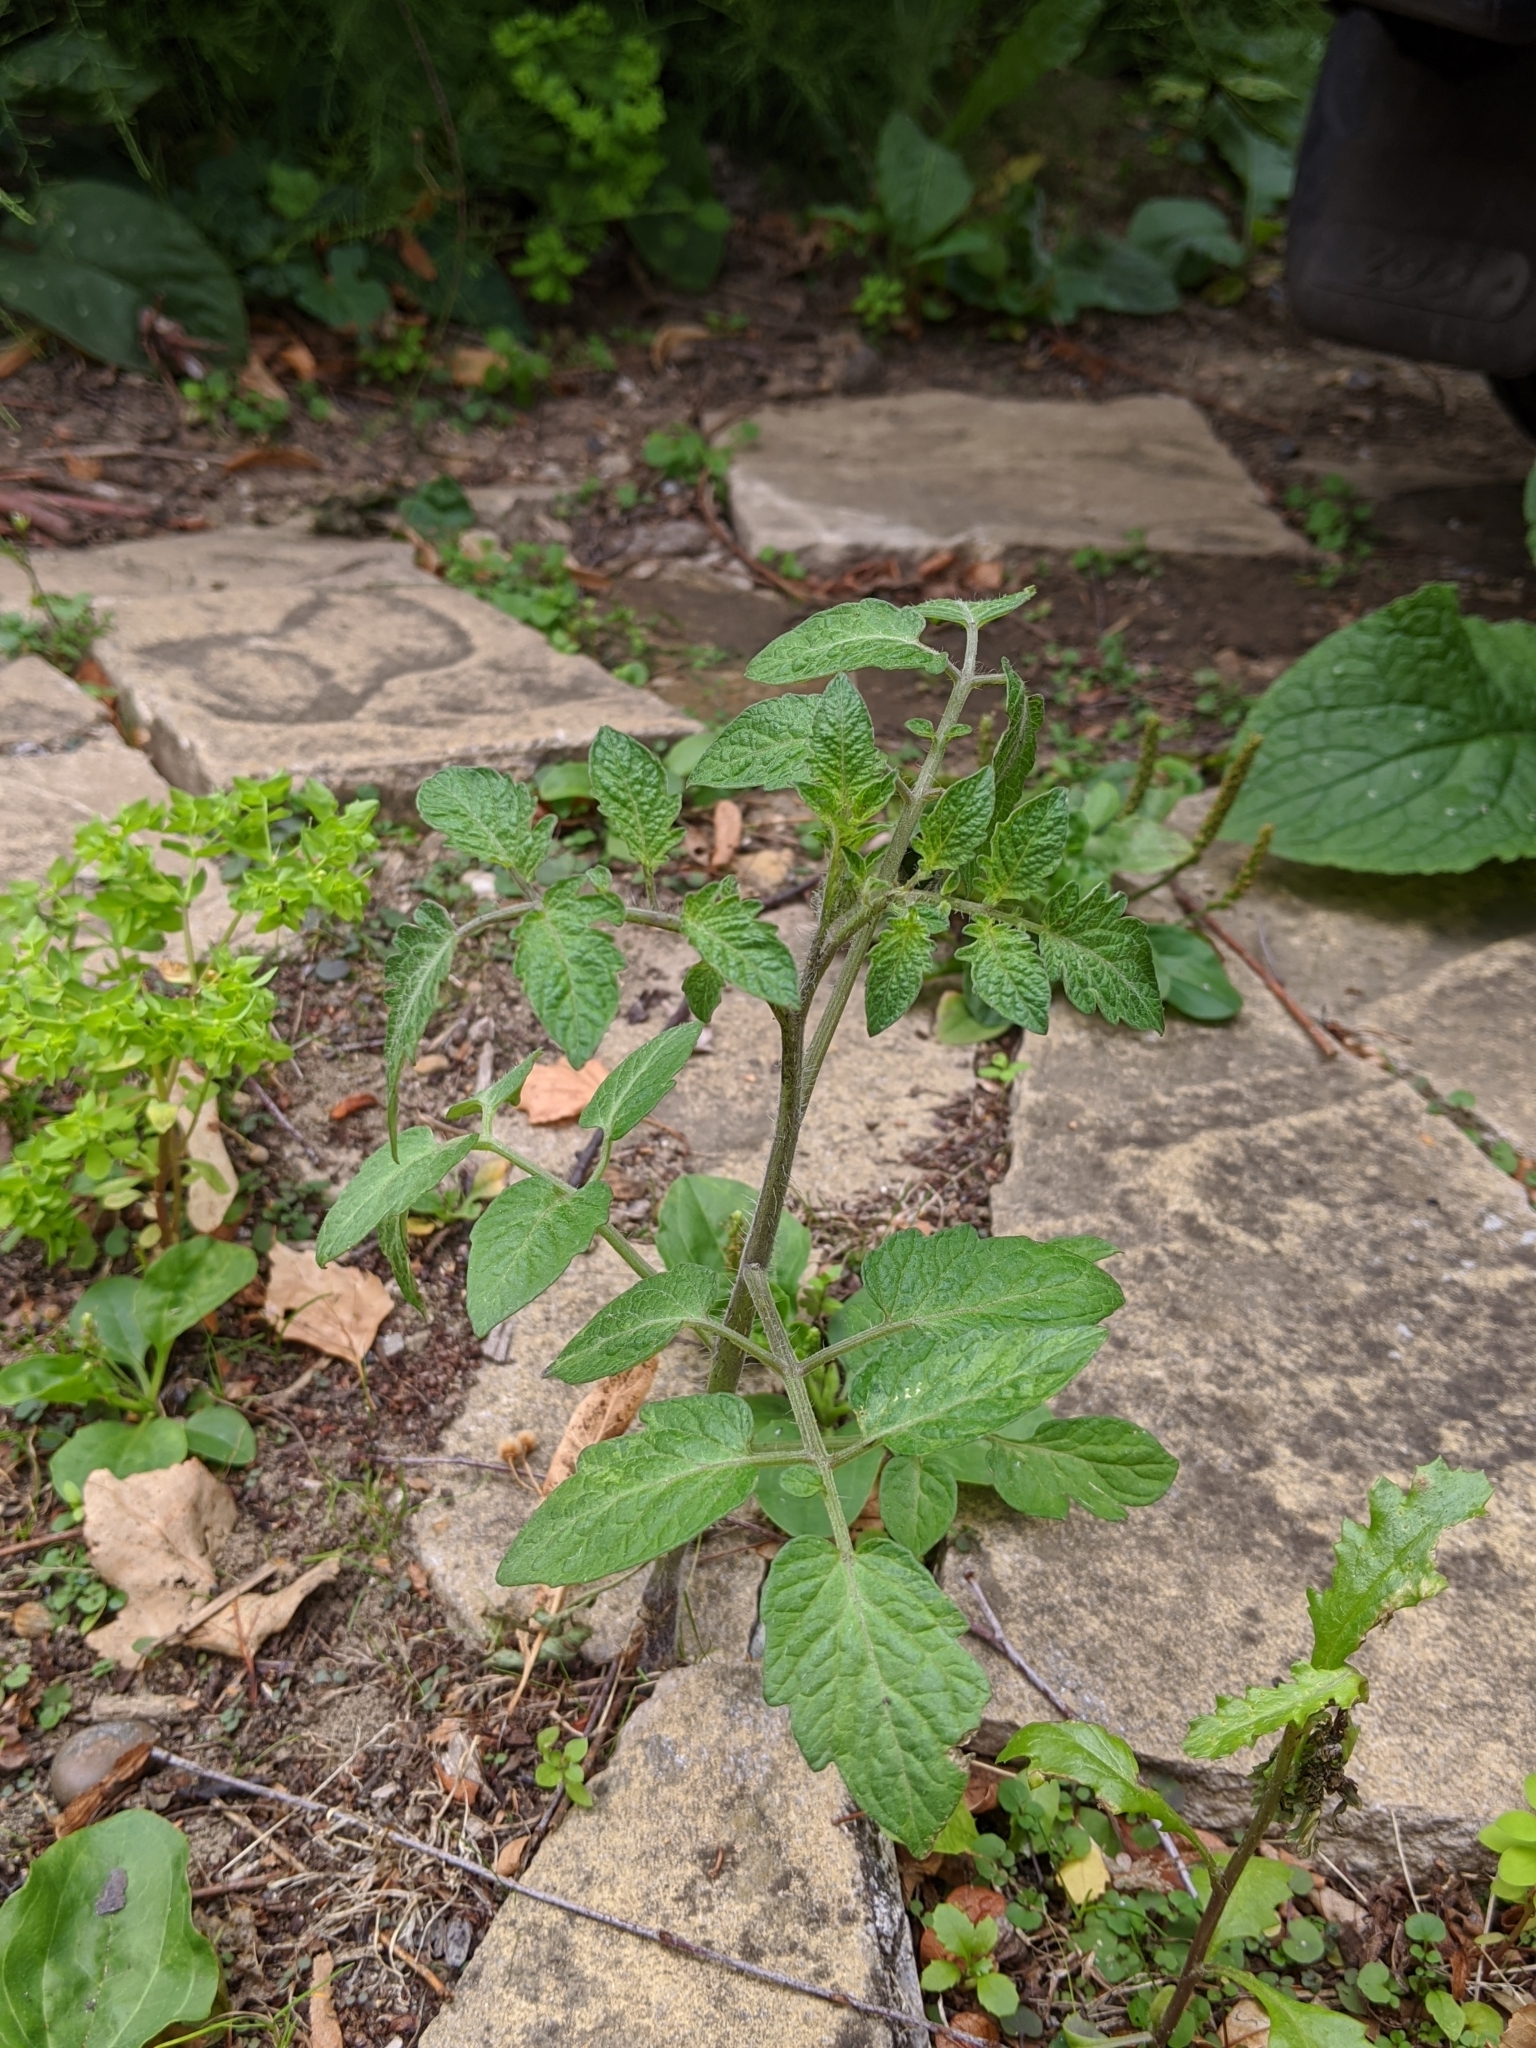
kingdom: Plantae
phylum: Tracheophyta
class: Magnoliopsida
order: Solanales
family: Solanaceae
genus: Solanum
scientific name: Solanum lycopersicum
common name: Garden tomato
